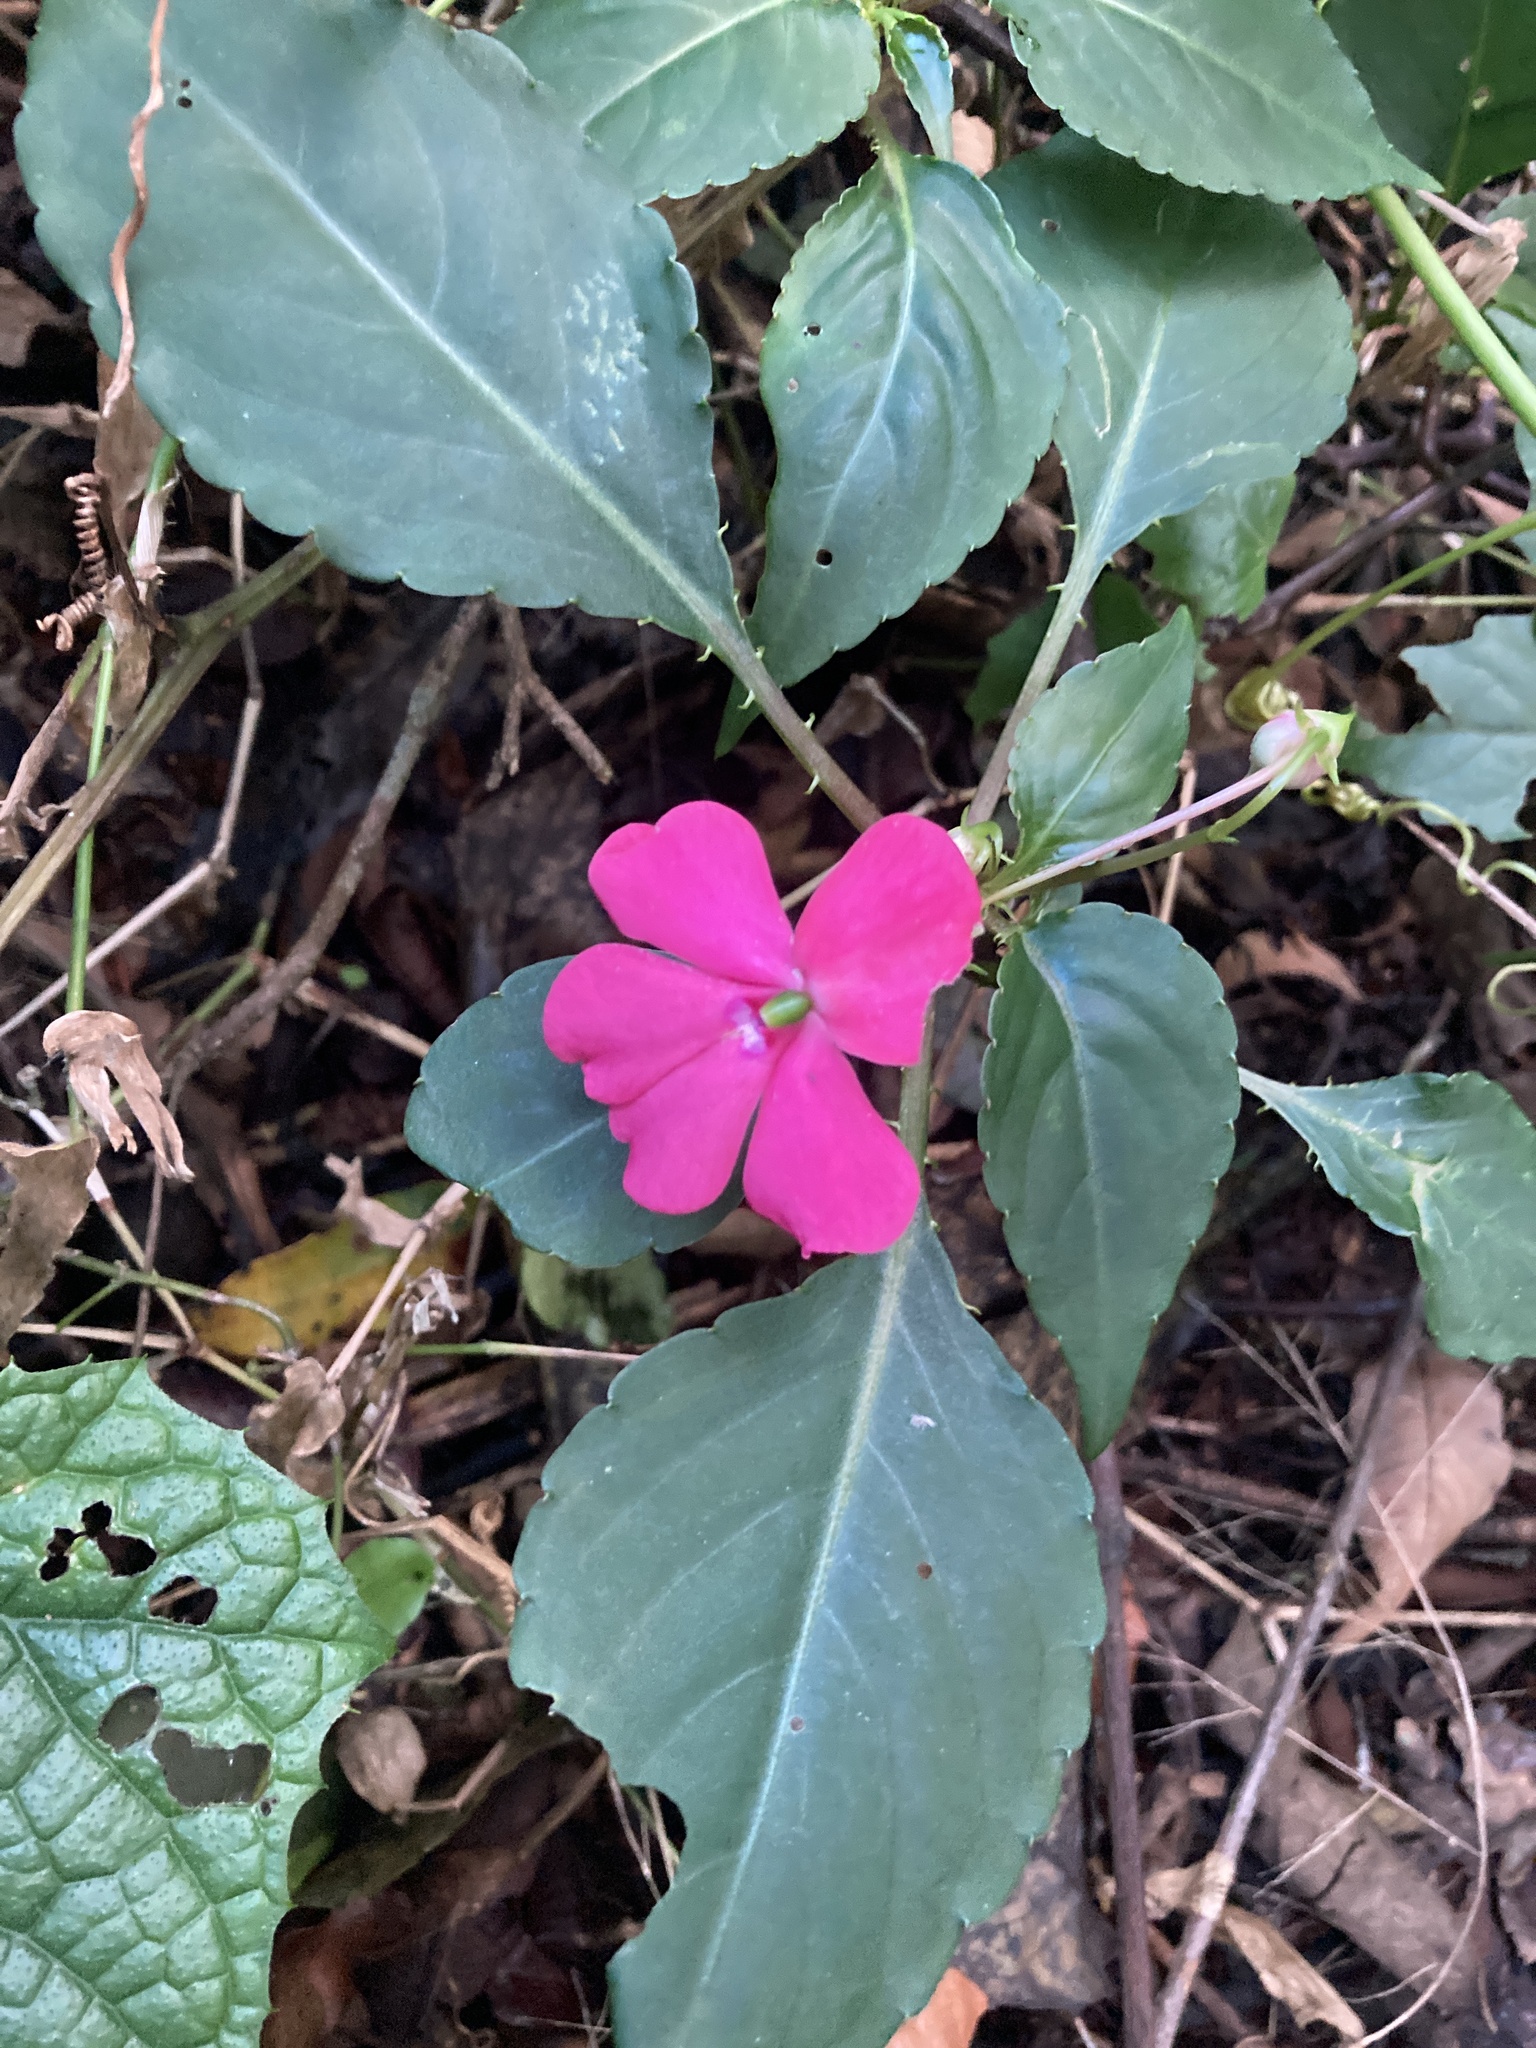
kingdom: Plantae
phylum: Tracheophyta
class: Magnoliopsida
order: Ericales
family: Balsaminaceae
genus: Impatiens
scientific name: Impatiens walleriana
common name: Buzzy lizzy
